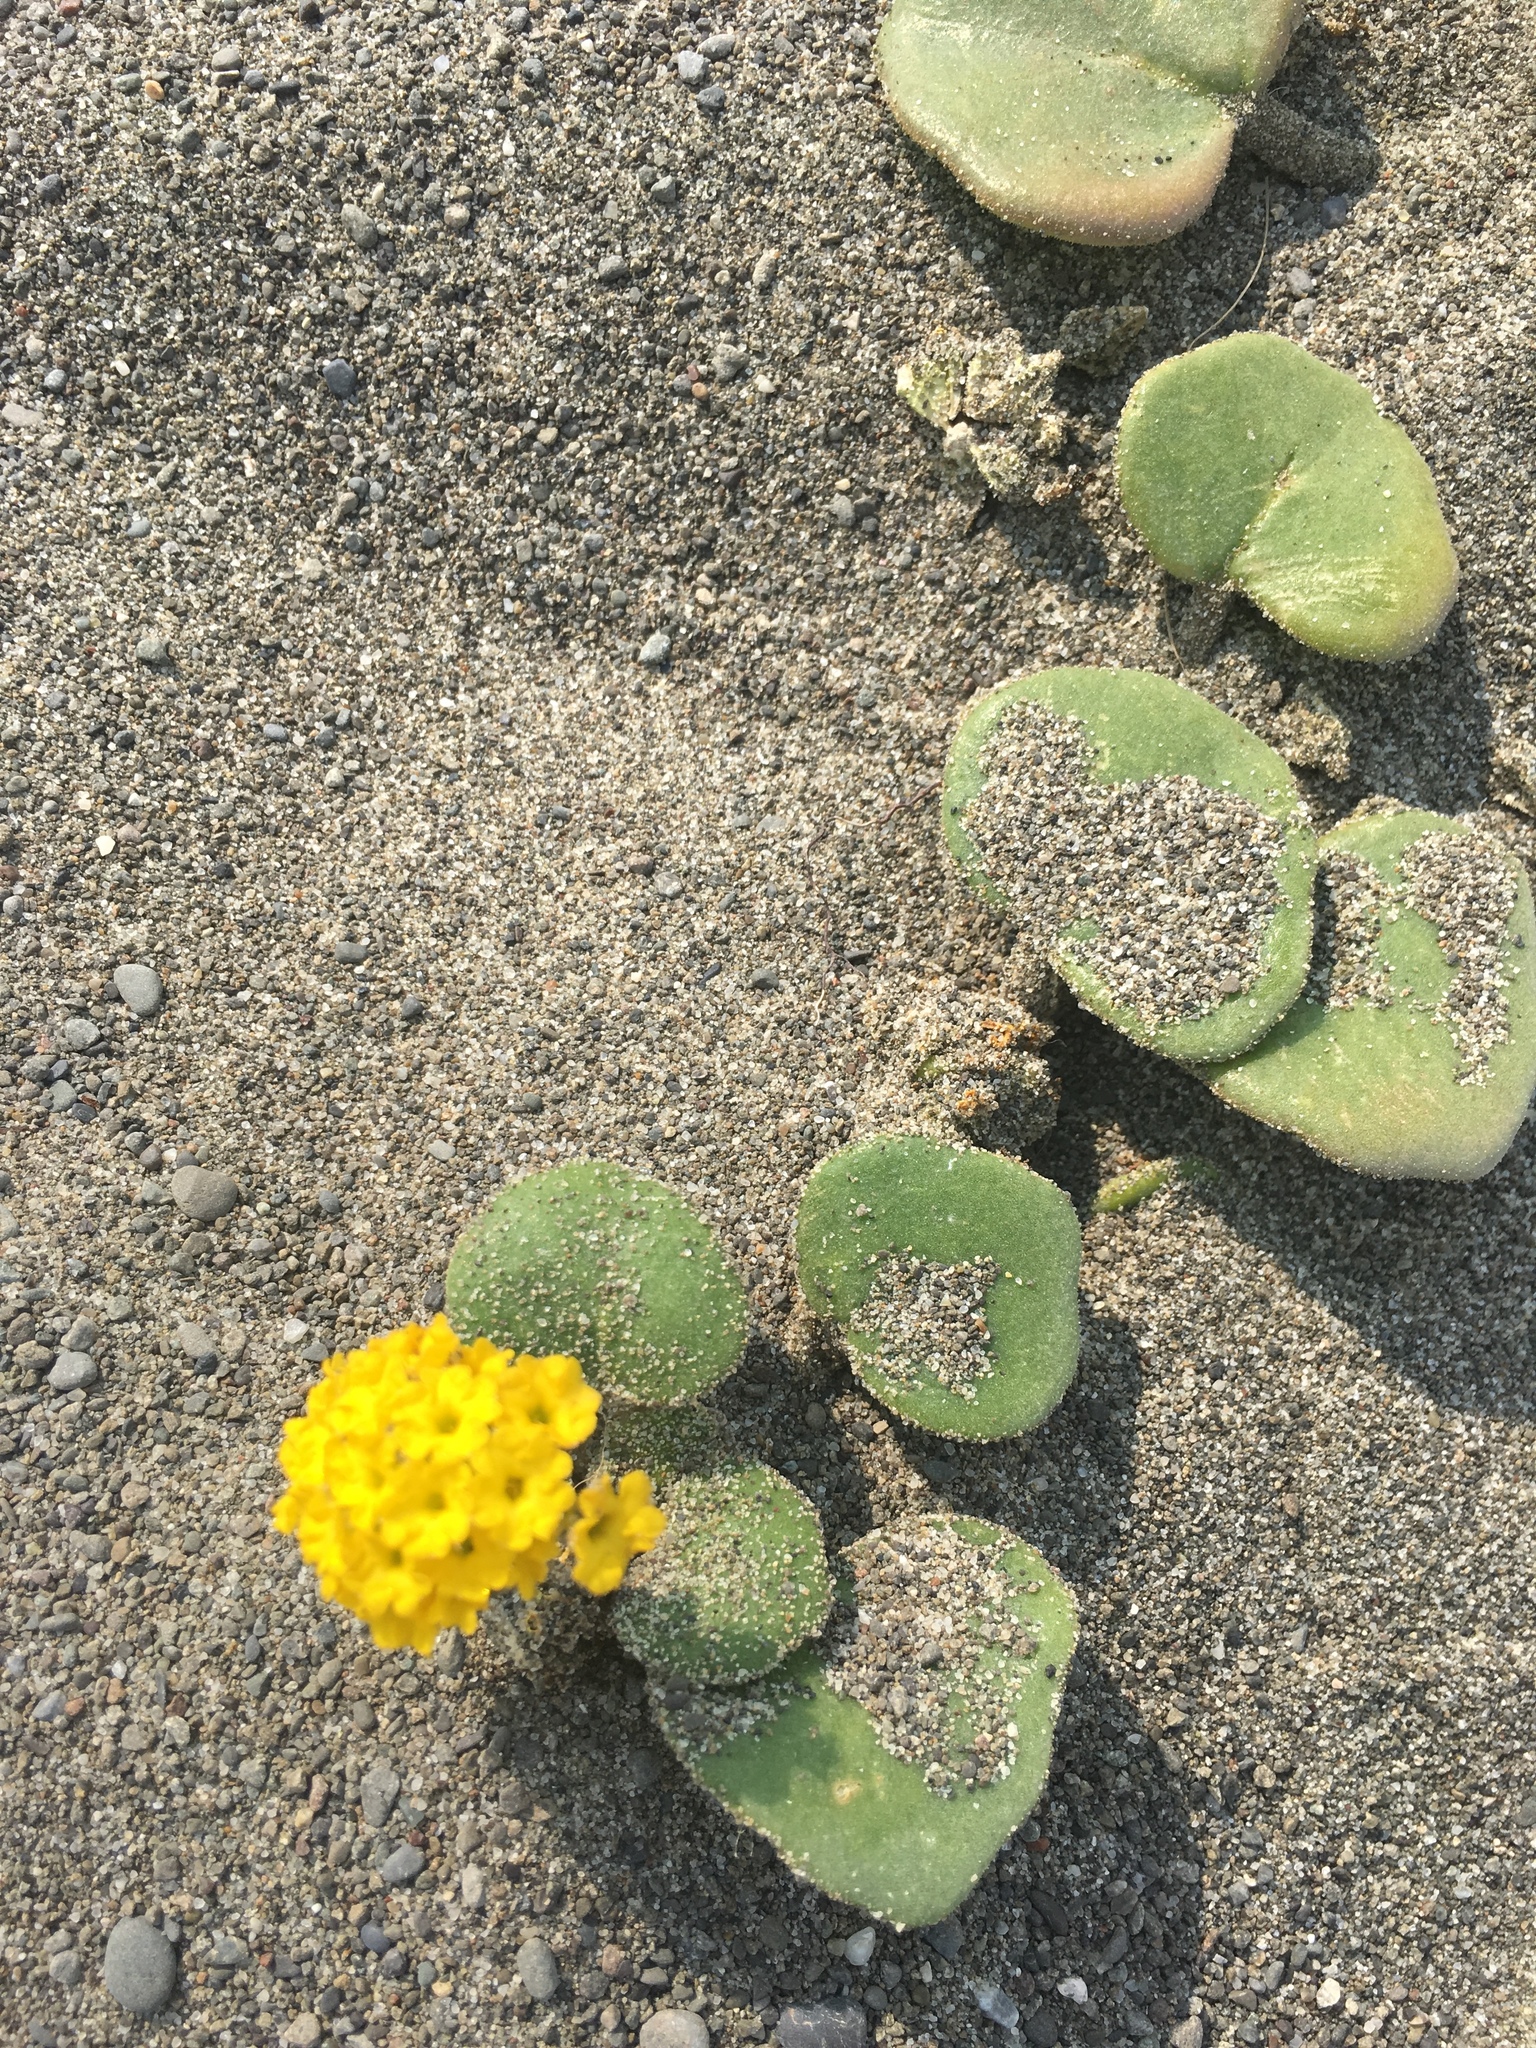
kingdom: Plantae
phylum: Tracheophyta
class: Magnoliopsida
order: Caryophyllales
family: Nyctaginaceae
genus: Abronia
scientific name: Abronia latifolia
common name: Yellow sand-verbena
